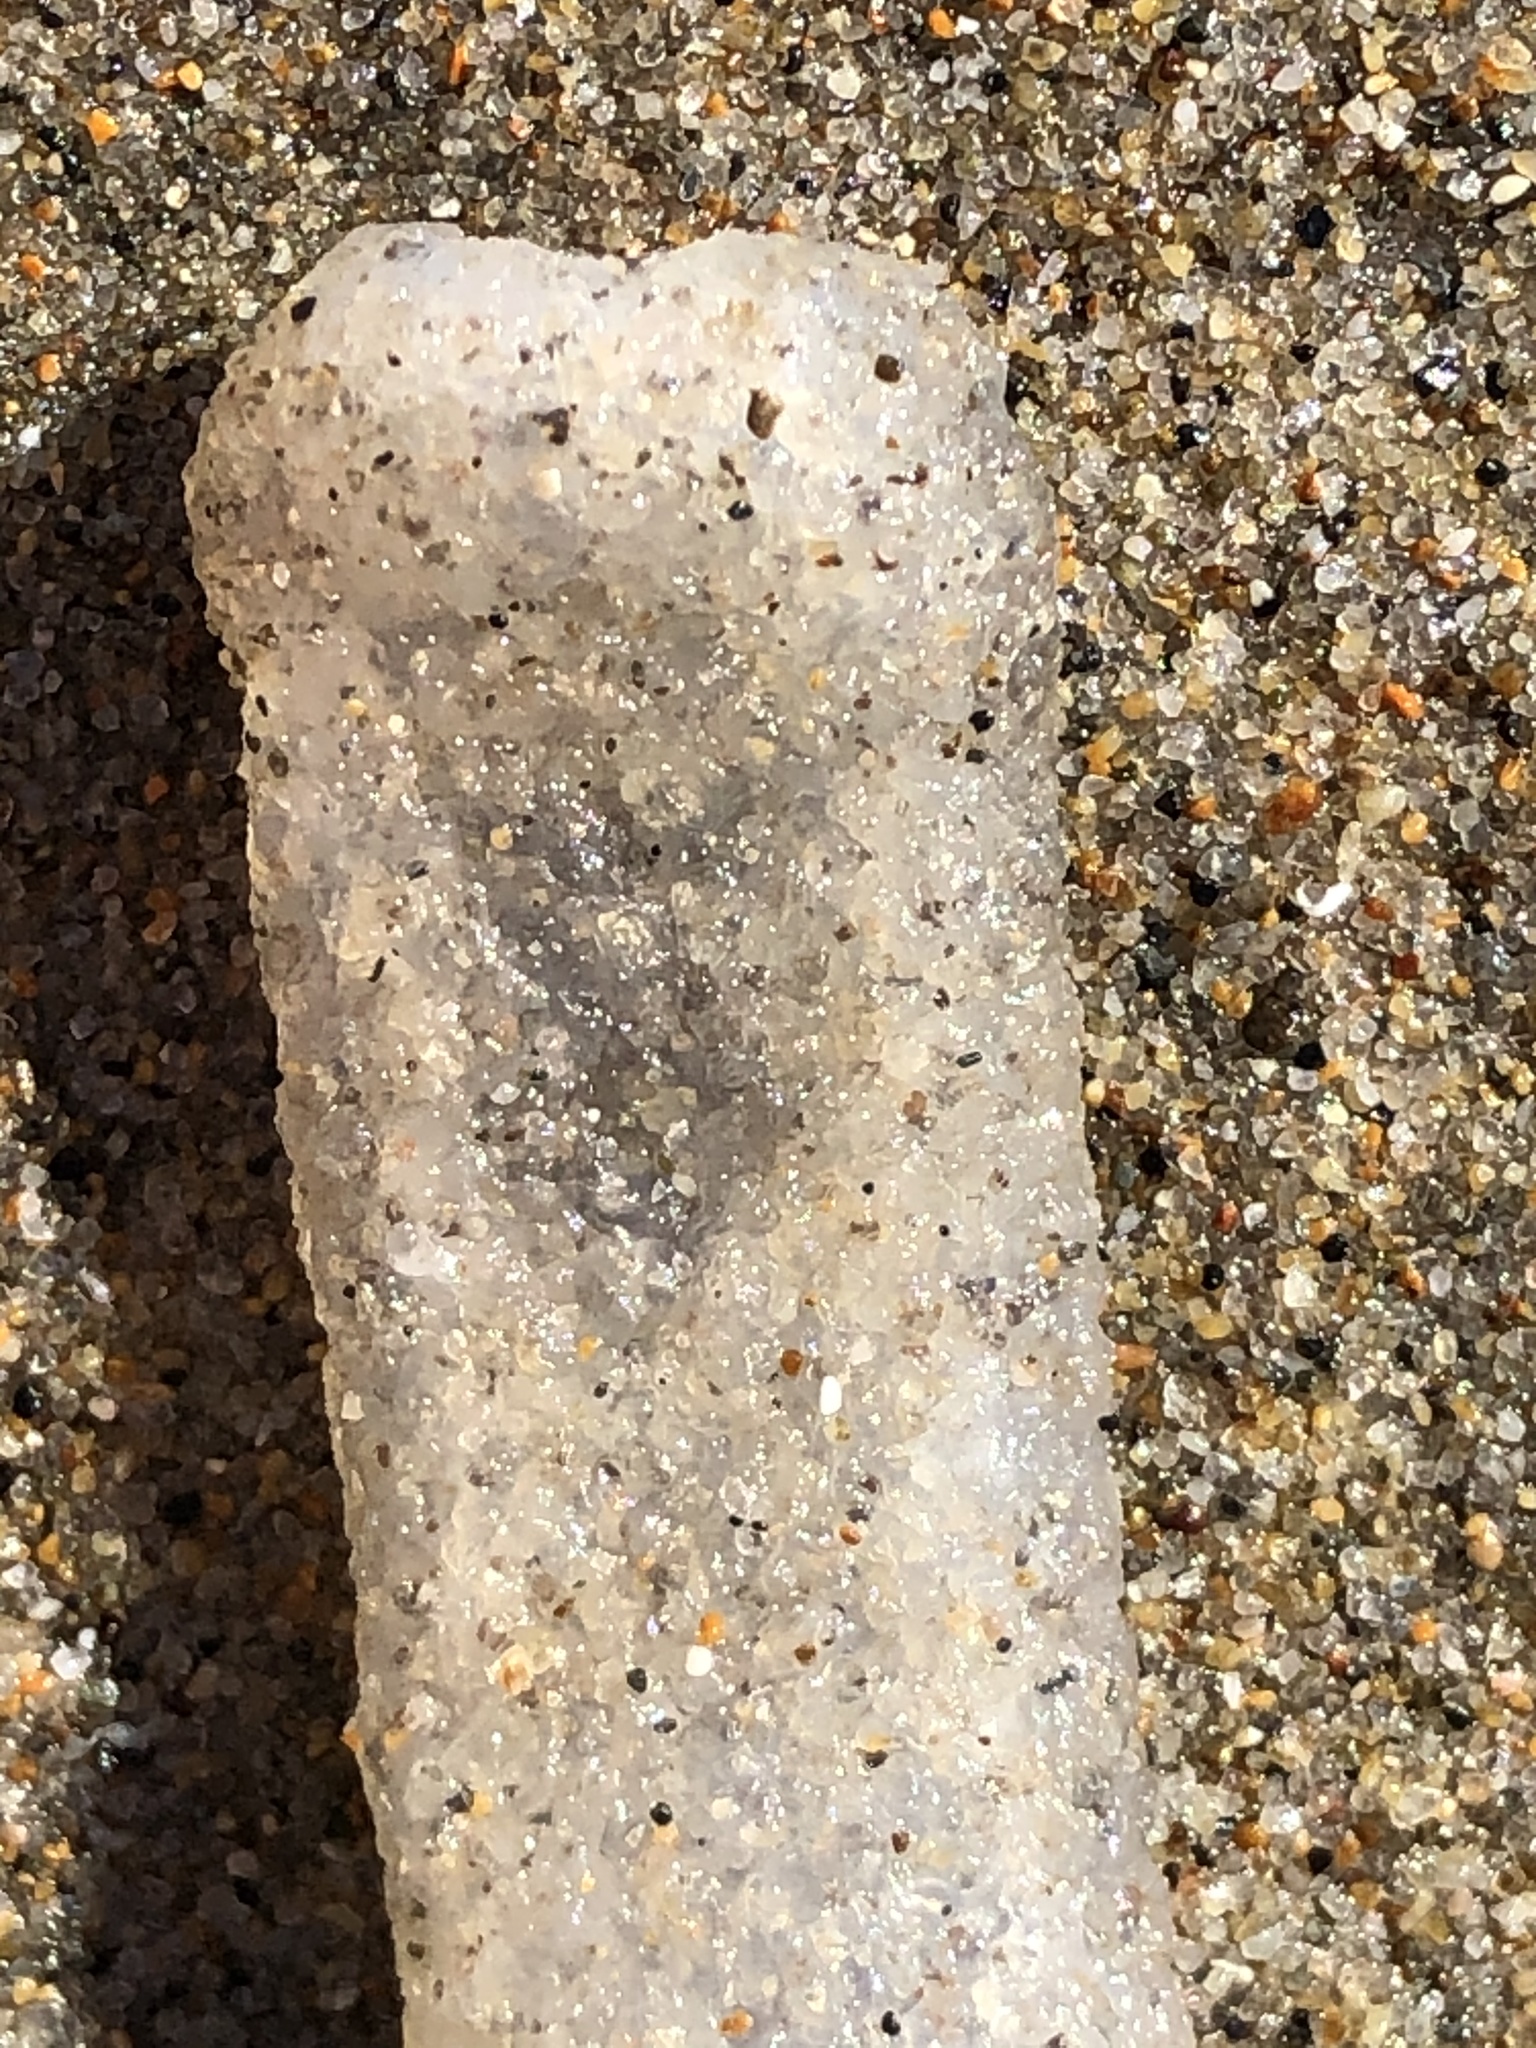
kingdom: Animalia
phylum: Chordata
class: Thaliacea
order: Pyrosomatida
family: Pyrosomatidae
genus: Pyrosoma
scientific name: Pyrosoma atlanticum
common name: Atlantic pyrosomes
